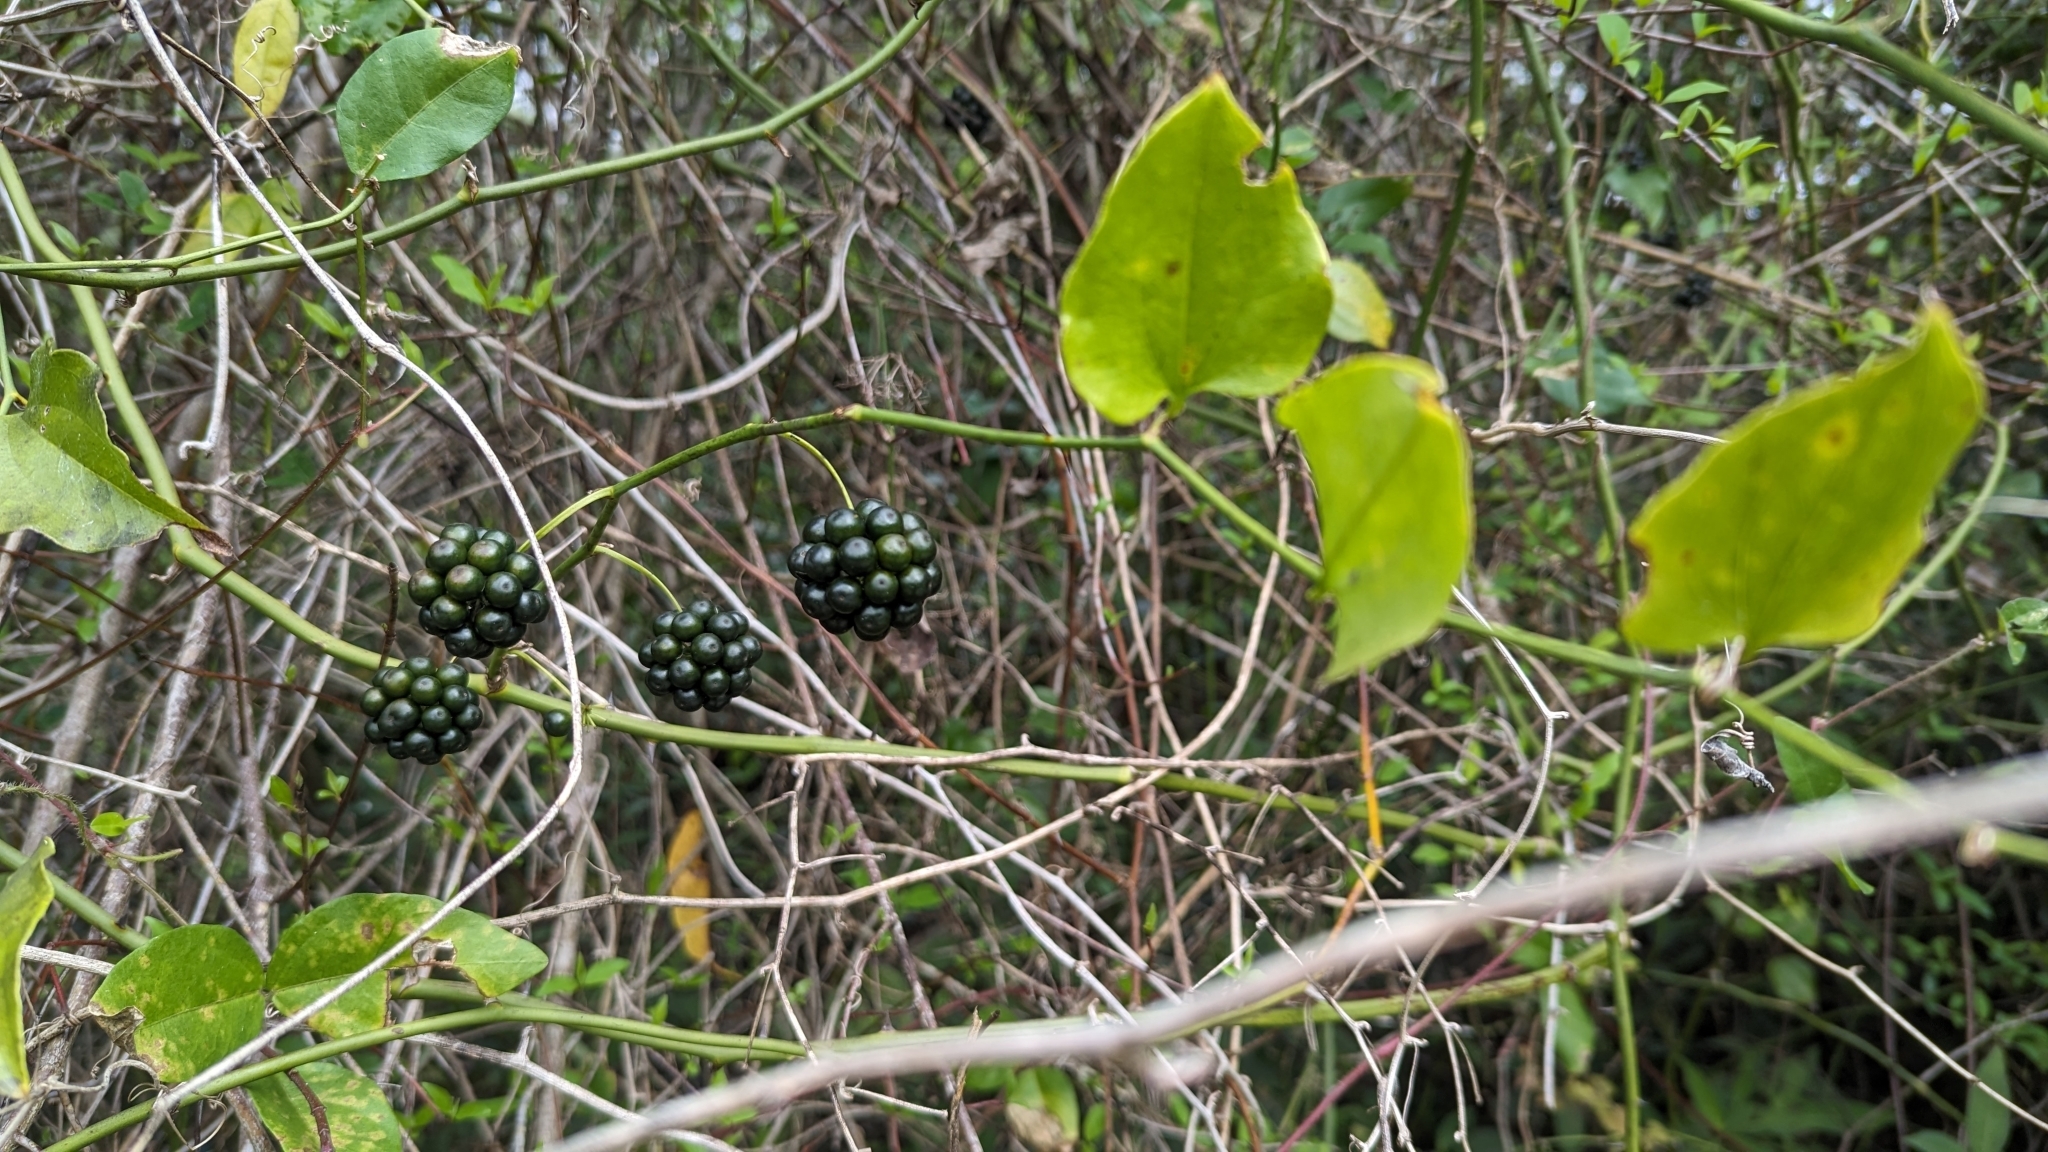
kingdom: Plantae
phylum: Tracheophyta
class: Liliopsida
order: Liliales
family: Smilacaceae
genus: Smilax
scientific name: Smilax tamnoides
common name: Hellfetter
